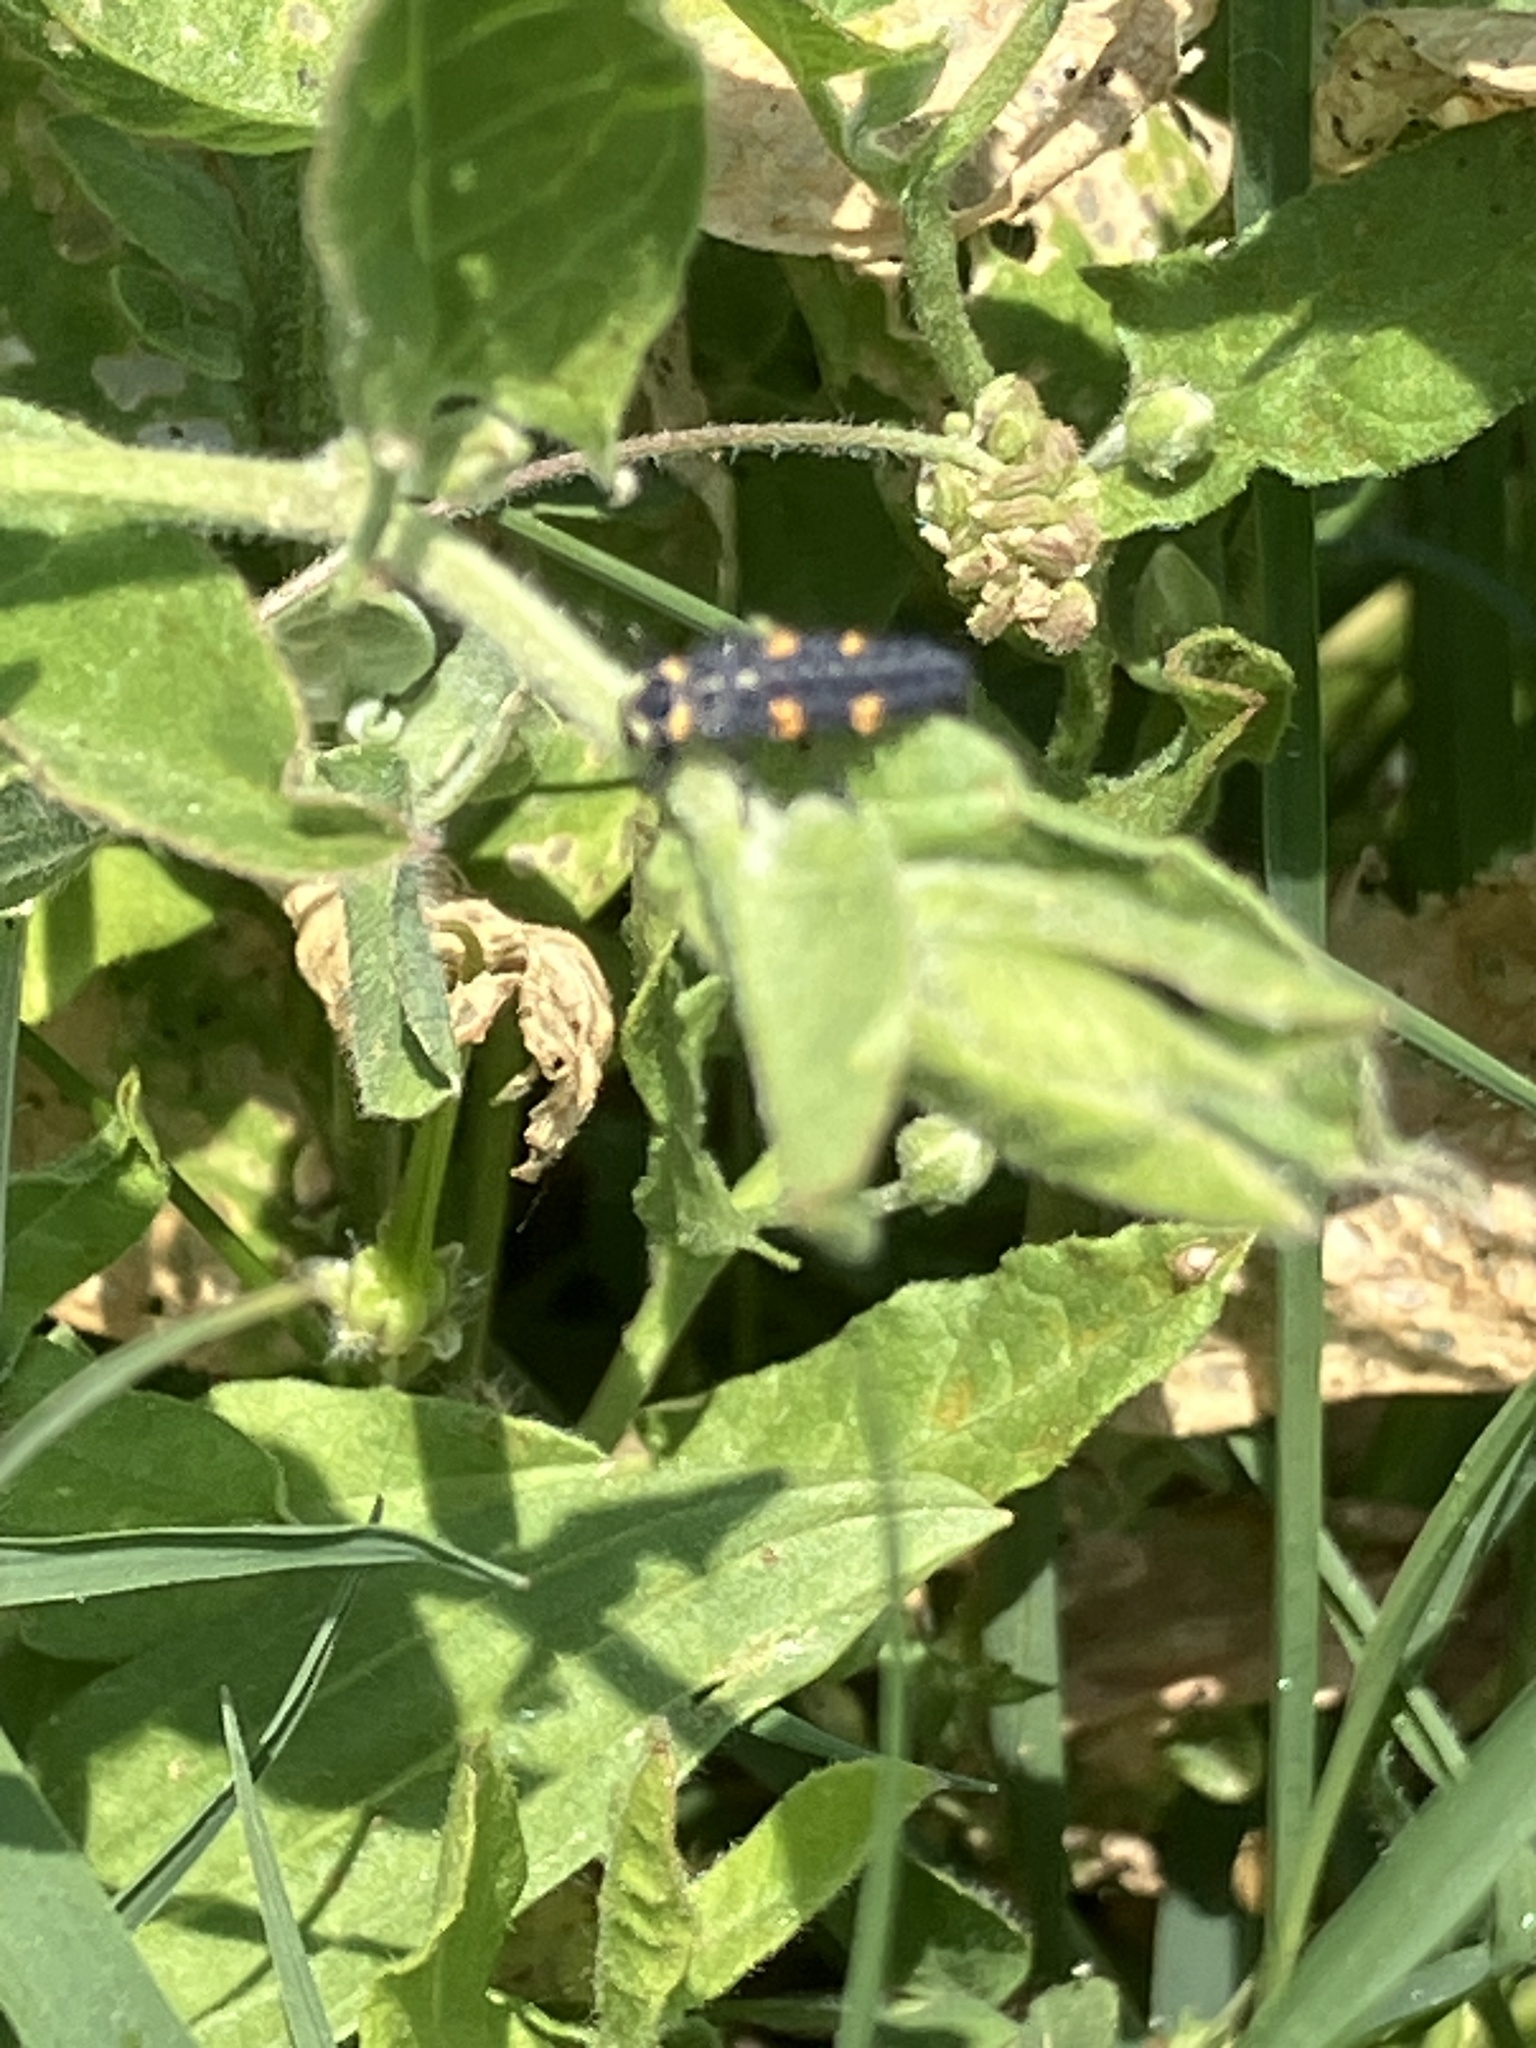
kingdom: Animalia
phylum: Arthropoda
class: Insecta
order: Coleoptera
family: Coccinellidae
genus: Coccinella
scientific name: Coccinella septempunctata
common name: Sevenspotted lady beetle
